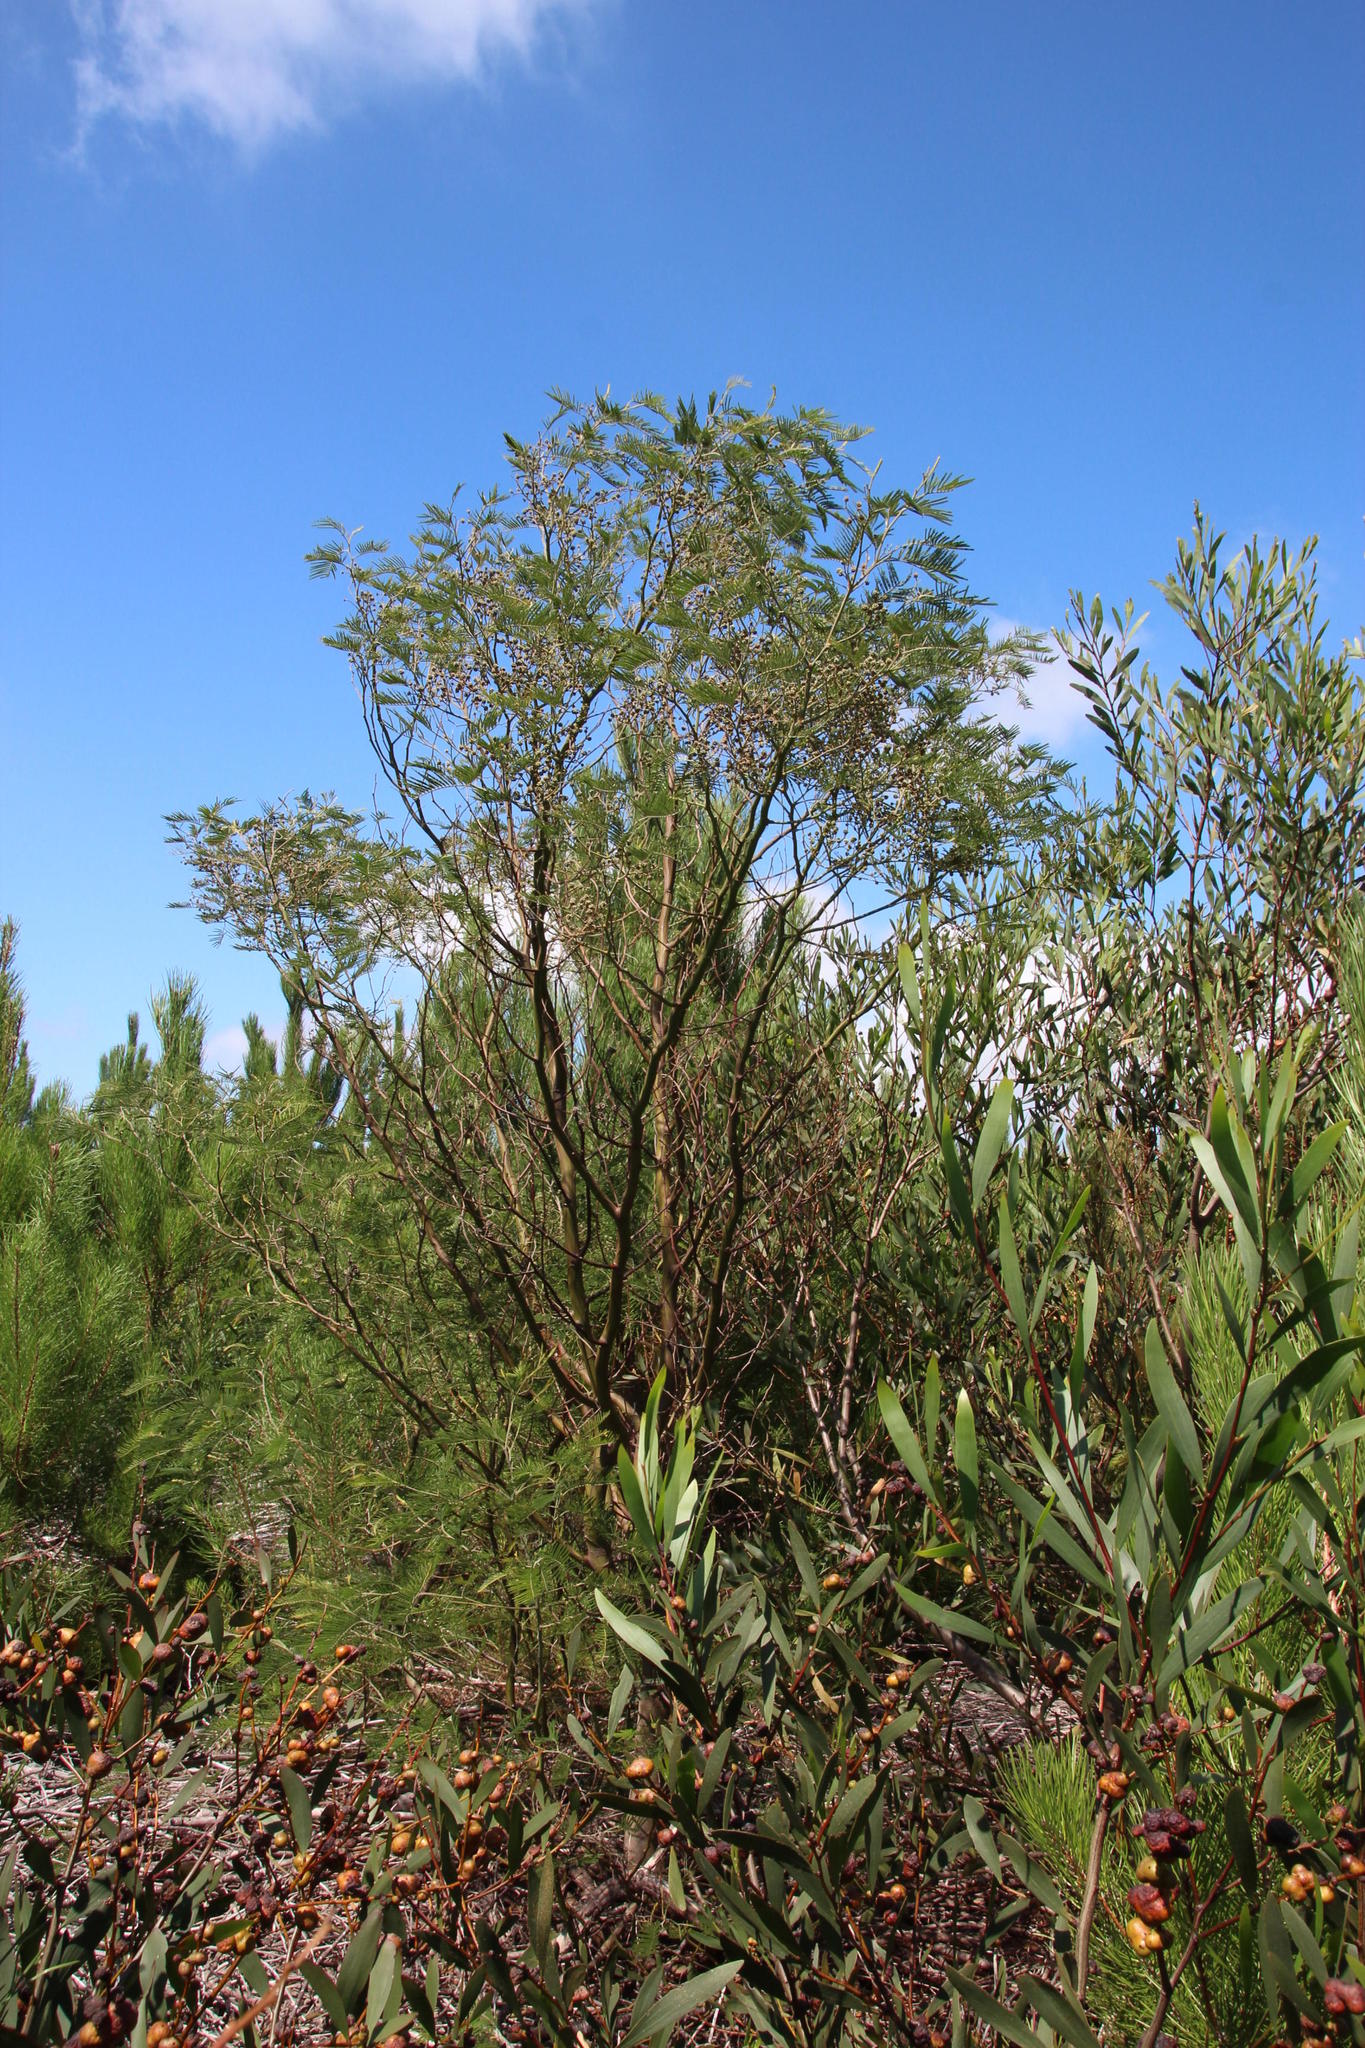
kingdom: Plantae
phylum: Tracheophyta
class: Magnoliopsida
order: Fabales
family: Fabaceae
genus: Acacia
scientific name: Acacia mearnsii
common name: Black wattle
